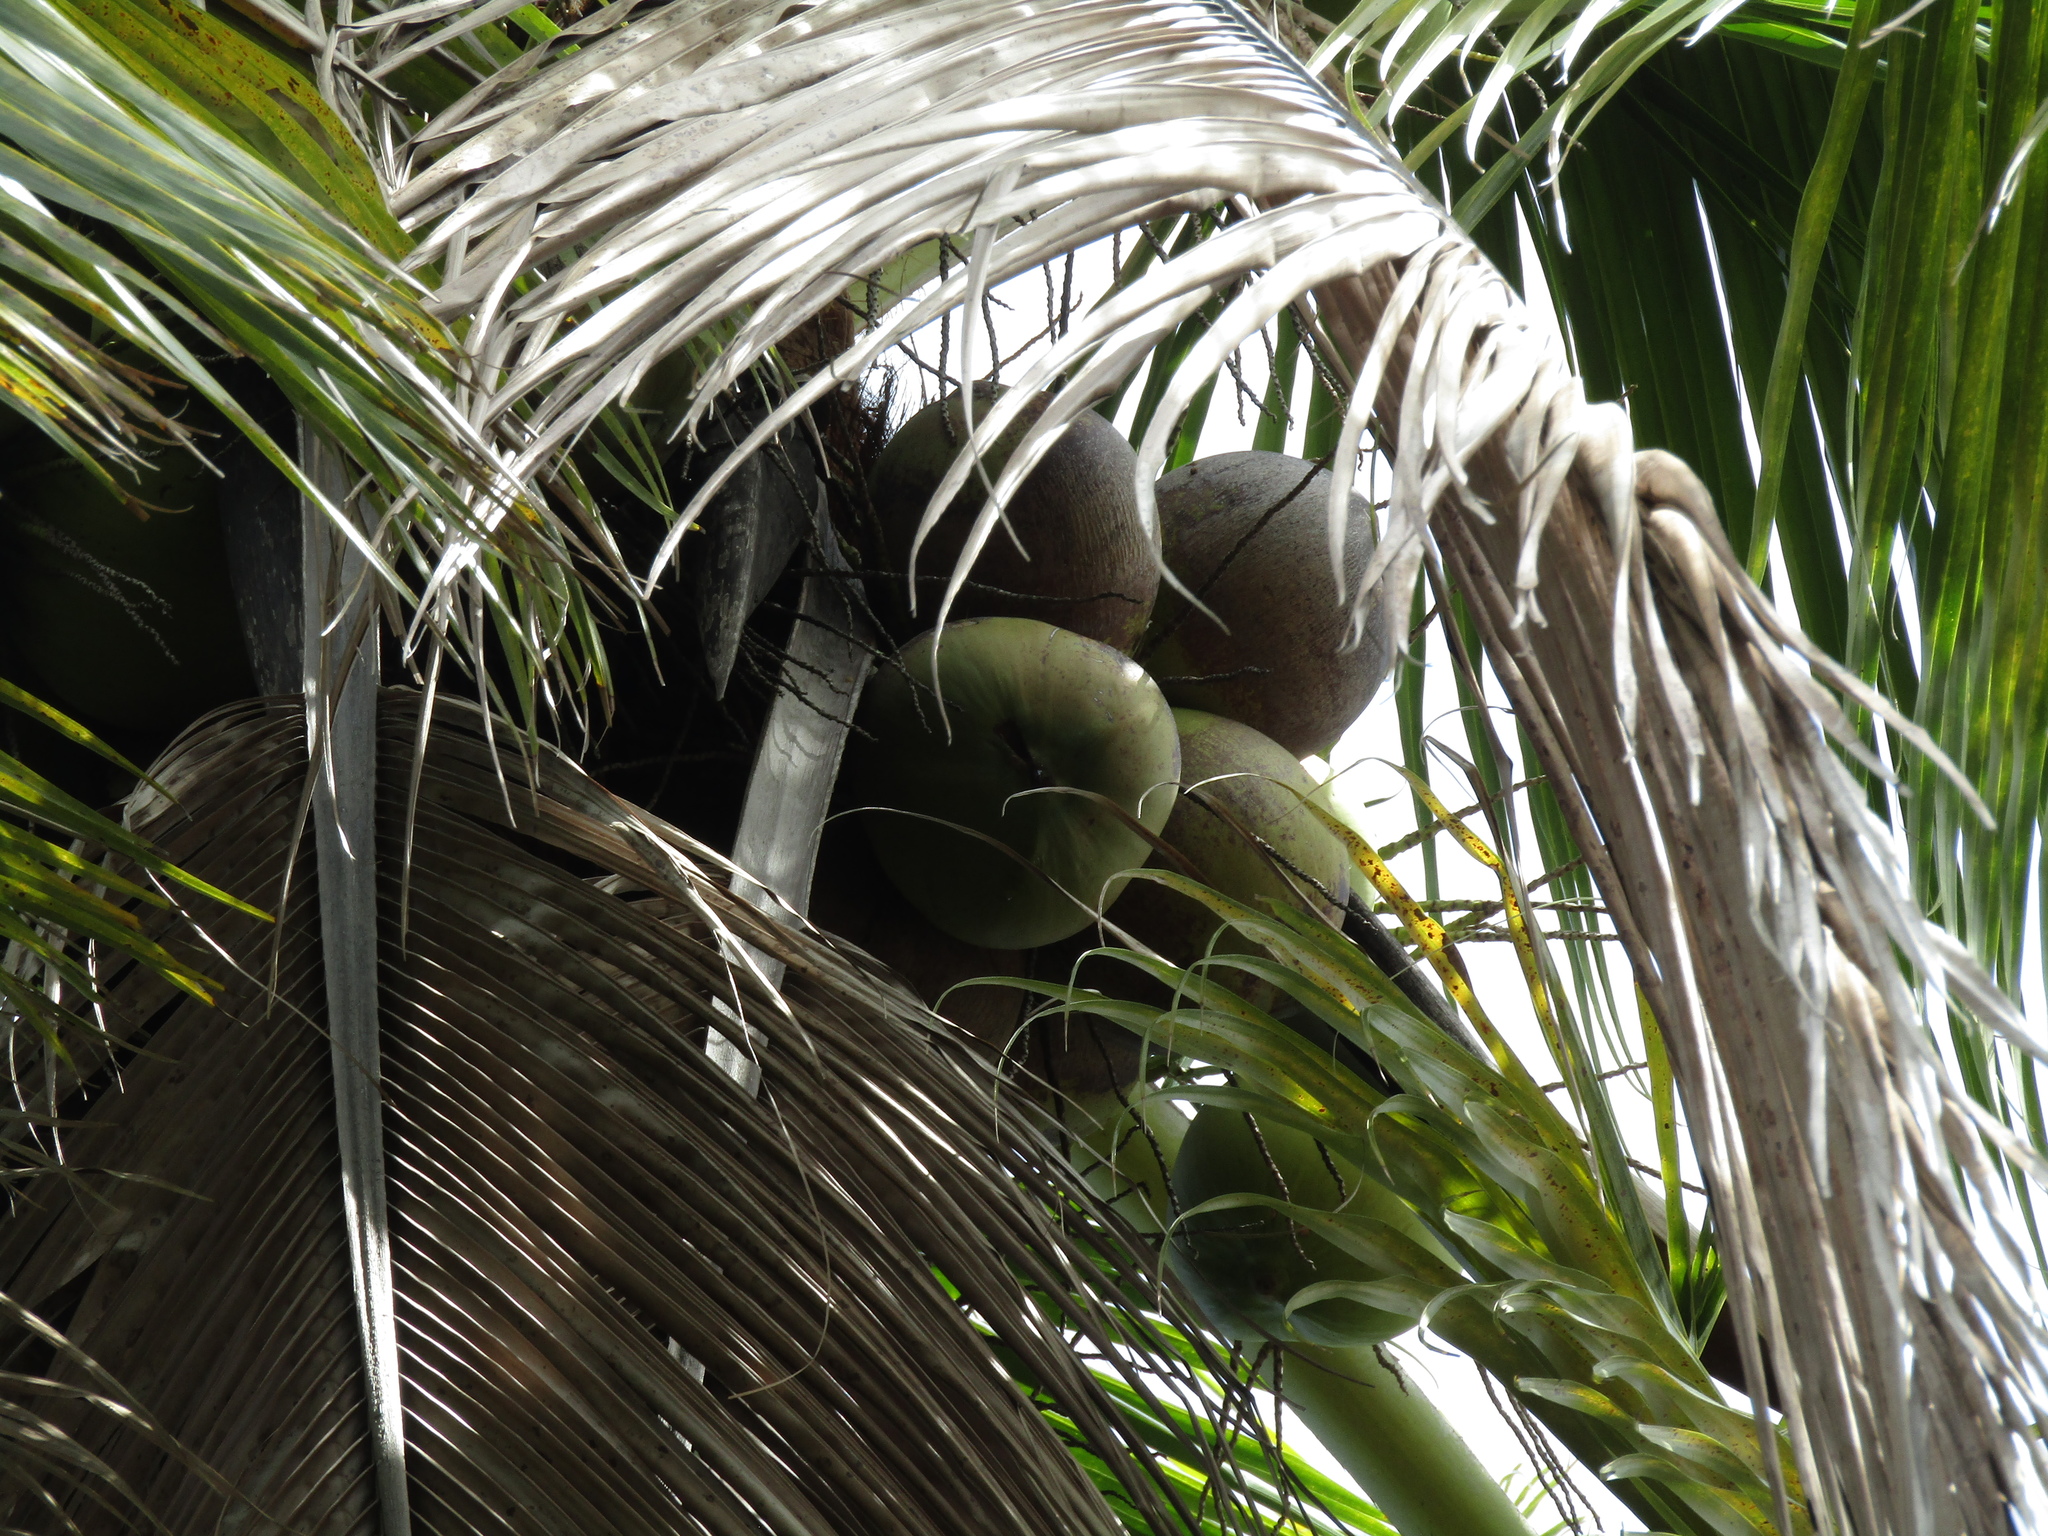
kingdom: Plantae
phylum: Tracheophyta
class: Liliopsida
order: Arecales
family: Arecaceae
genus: Cocos
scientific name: Cocos nucifera
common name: Coconut palm
